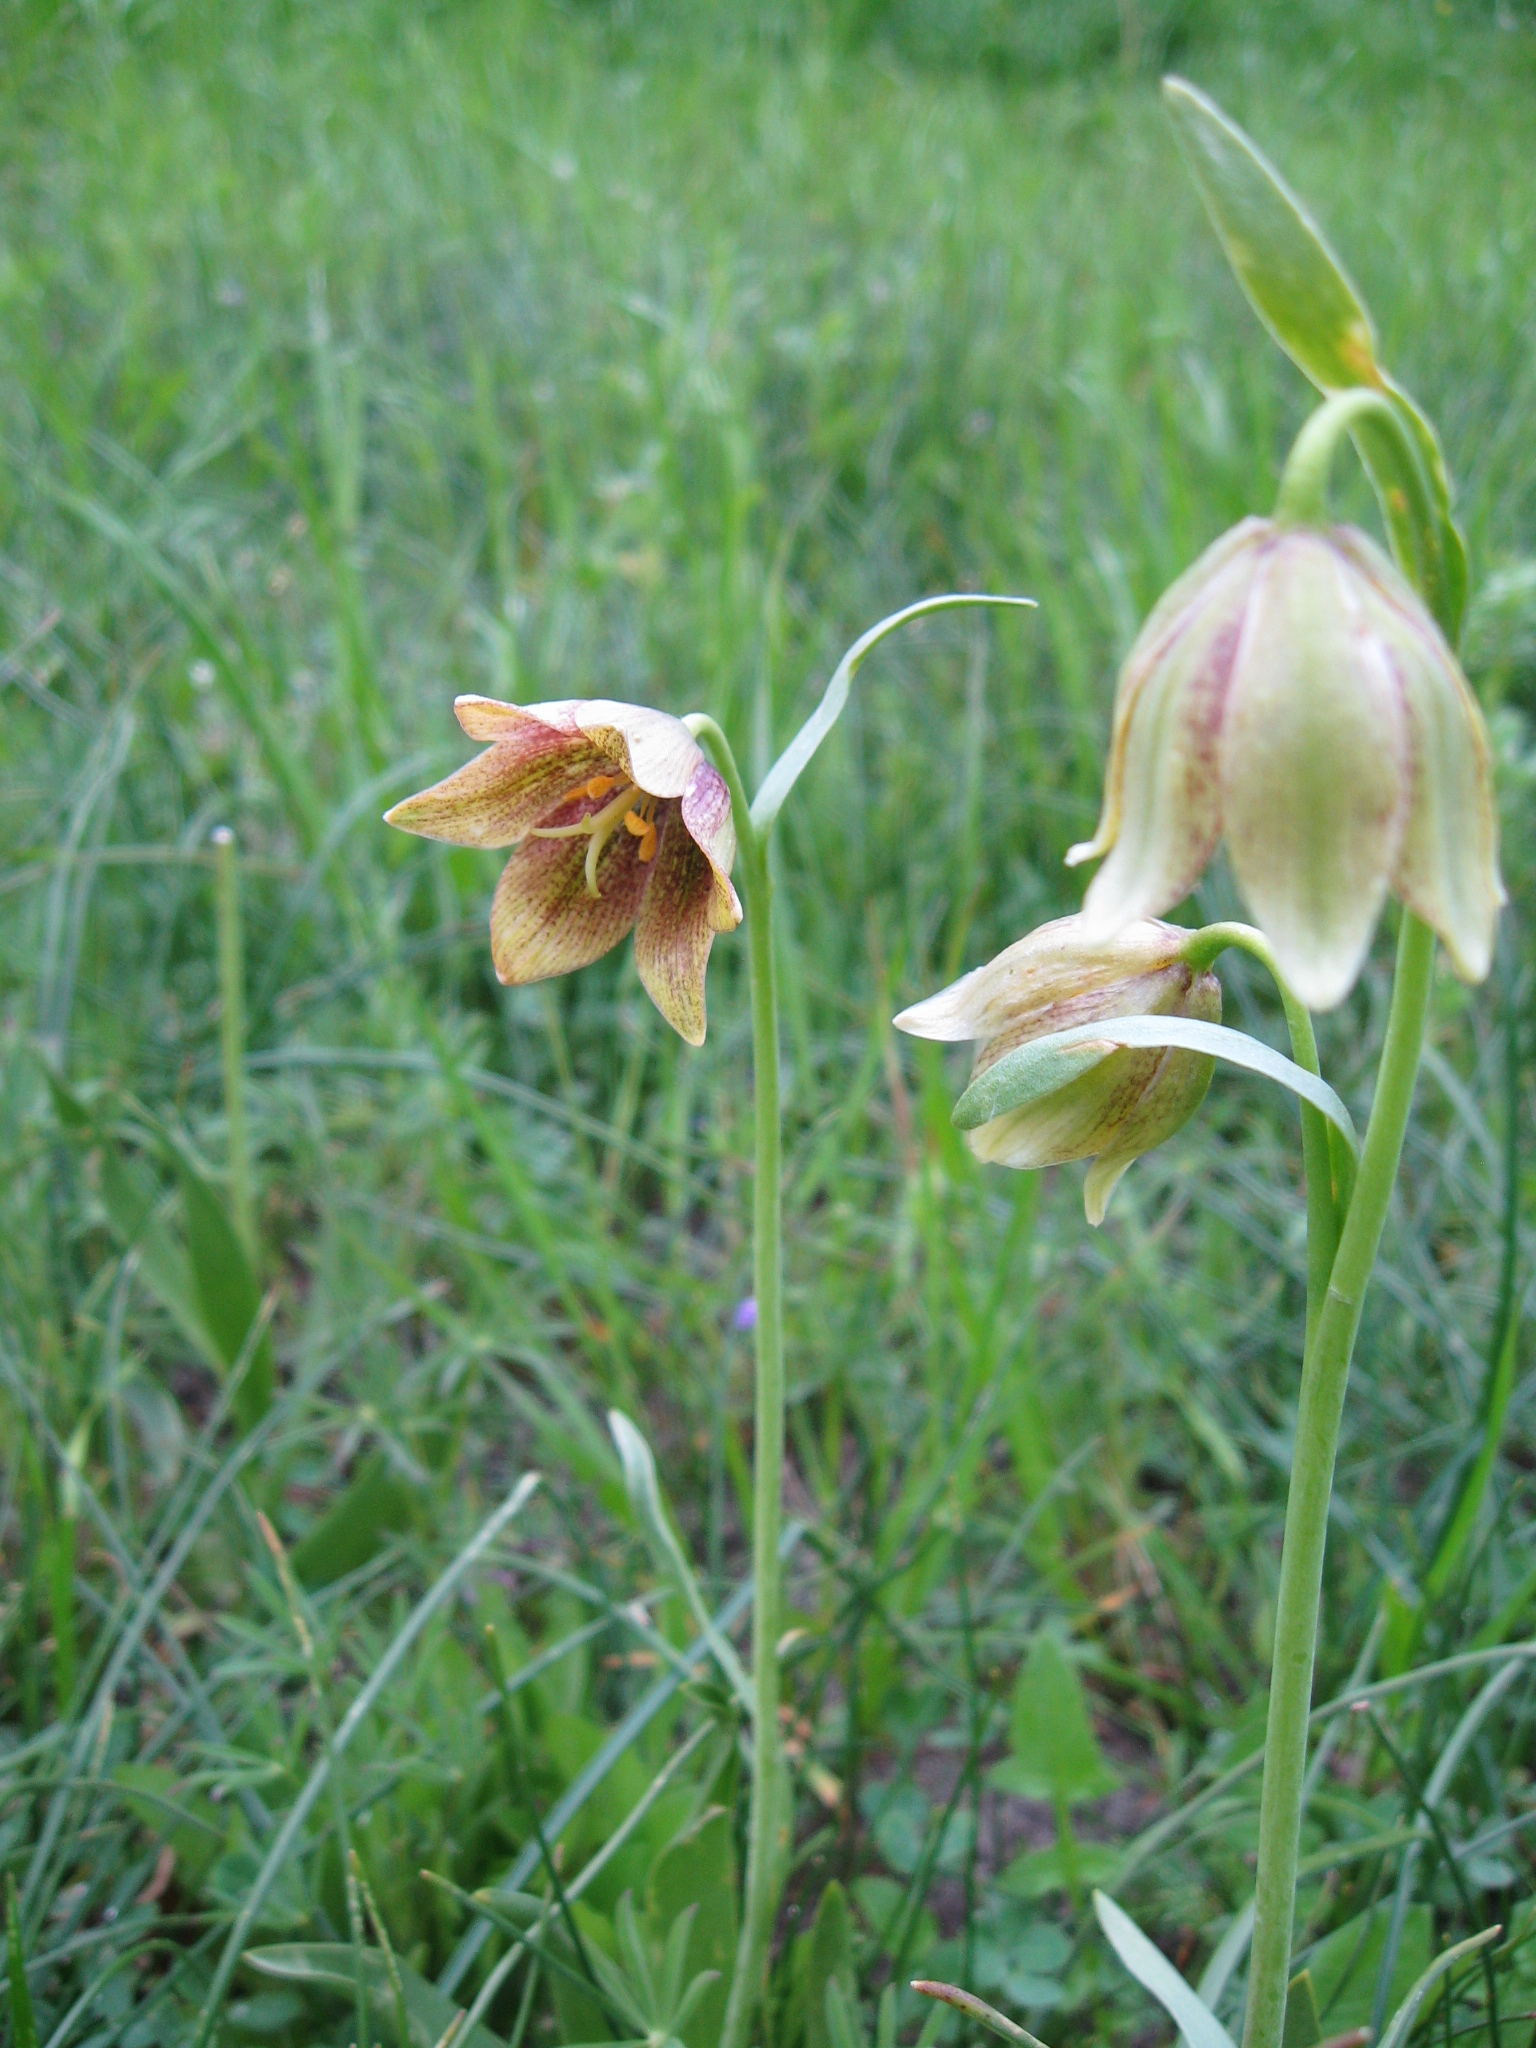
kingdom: Plantae
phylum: Tracheophyta
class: Liliopsida
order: Liliales
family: Liliaceae
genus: Fritillaria
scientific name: Fritillaria agrestis
